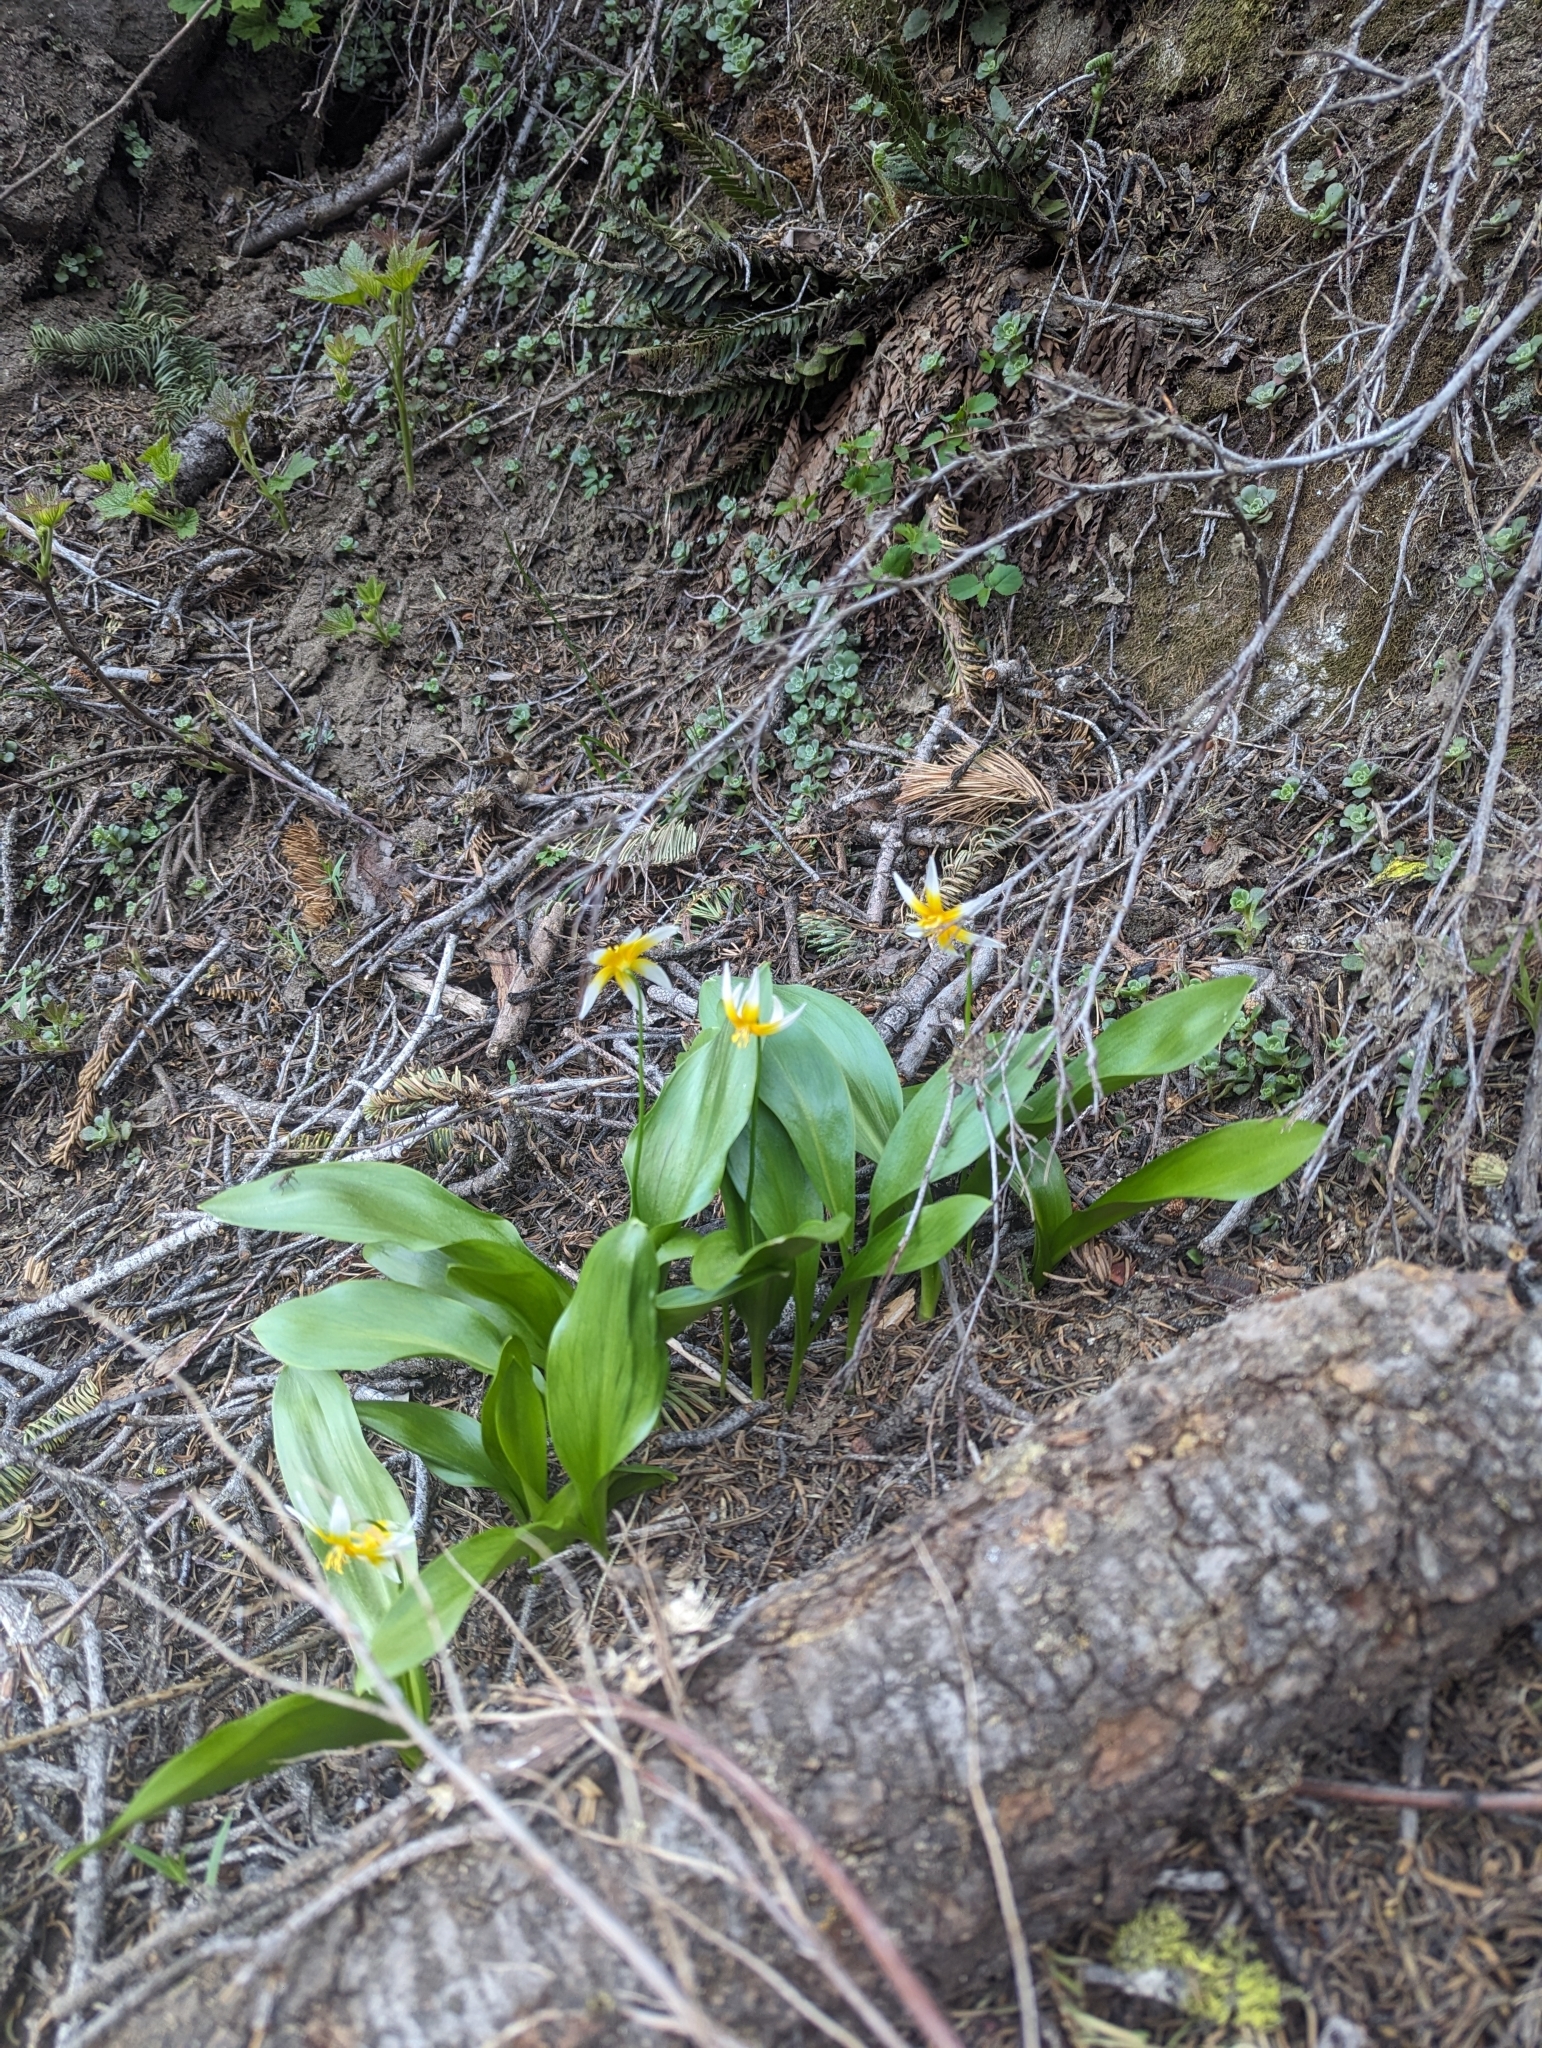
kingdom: Plantae
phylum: Tracheophyta
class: Liliopsida
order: Liliales
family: Liliaceae
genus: Erythronium
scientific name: Erythronium pusaterii
